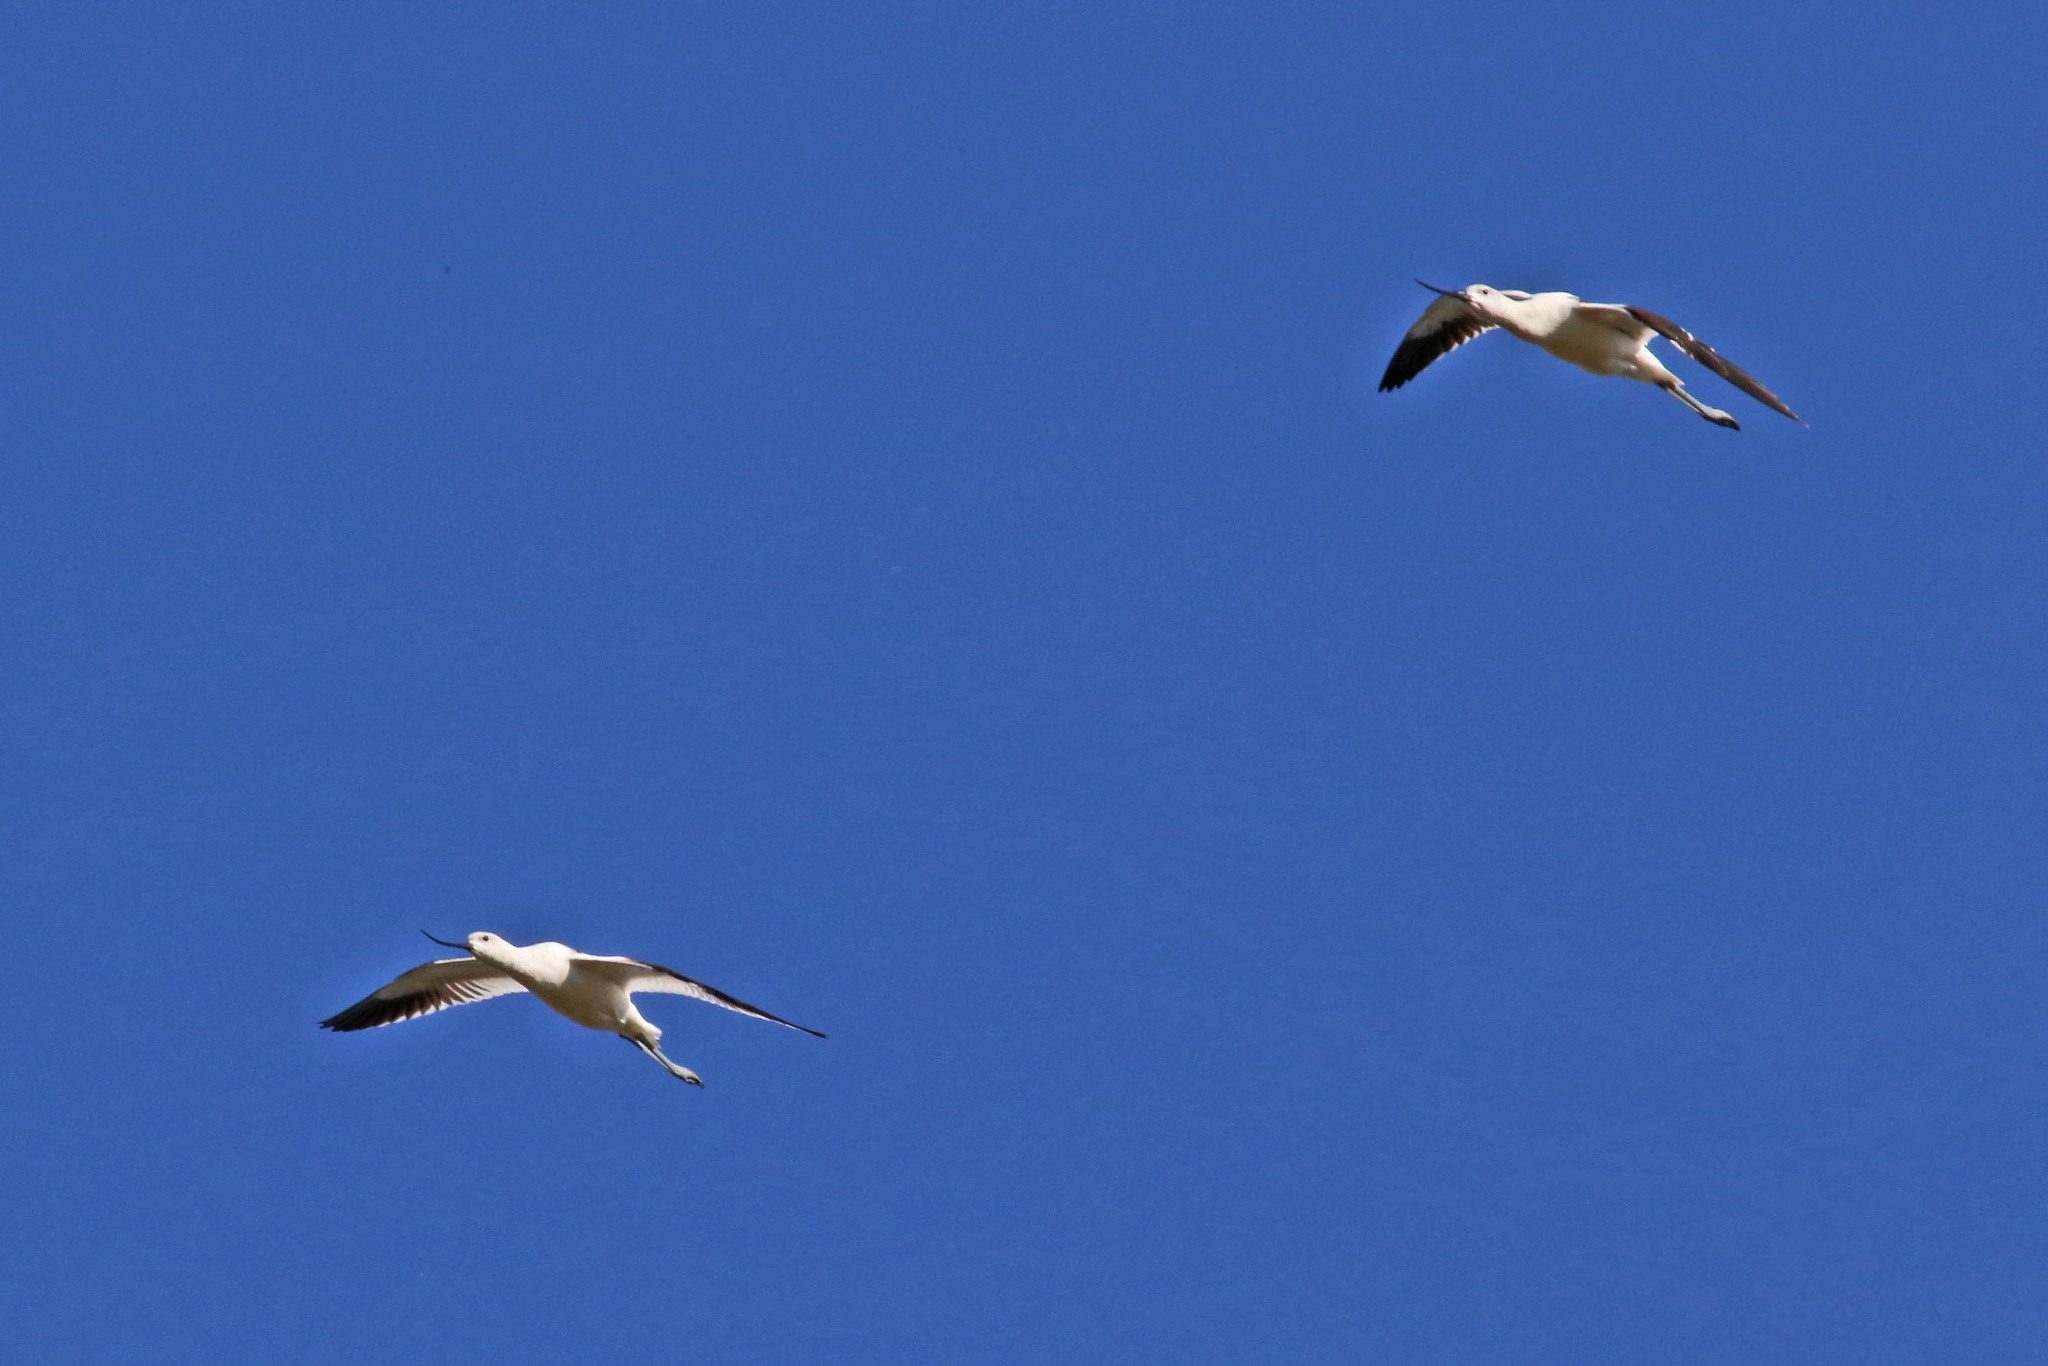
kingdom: Animalia
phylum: Chordata
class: Aves
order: Charadriiformes
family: Recurvirostridae
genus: Recurvirostra
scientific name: Recurvirostra americana
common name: American avocet
